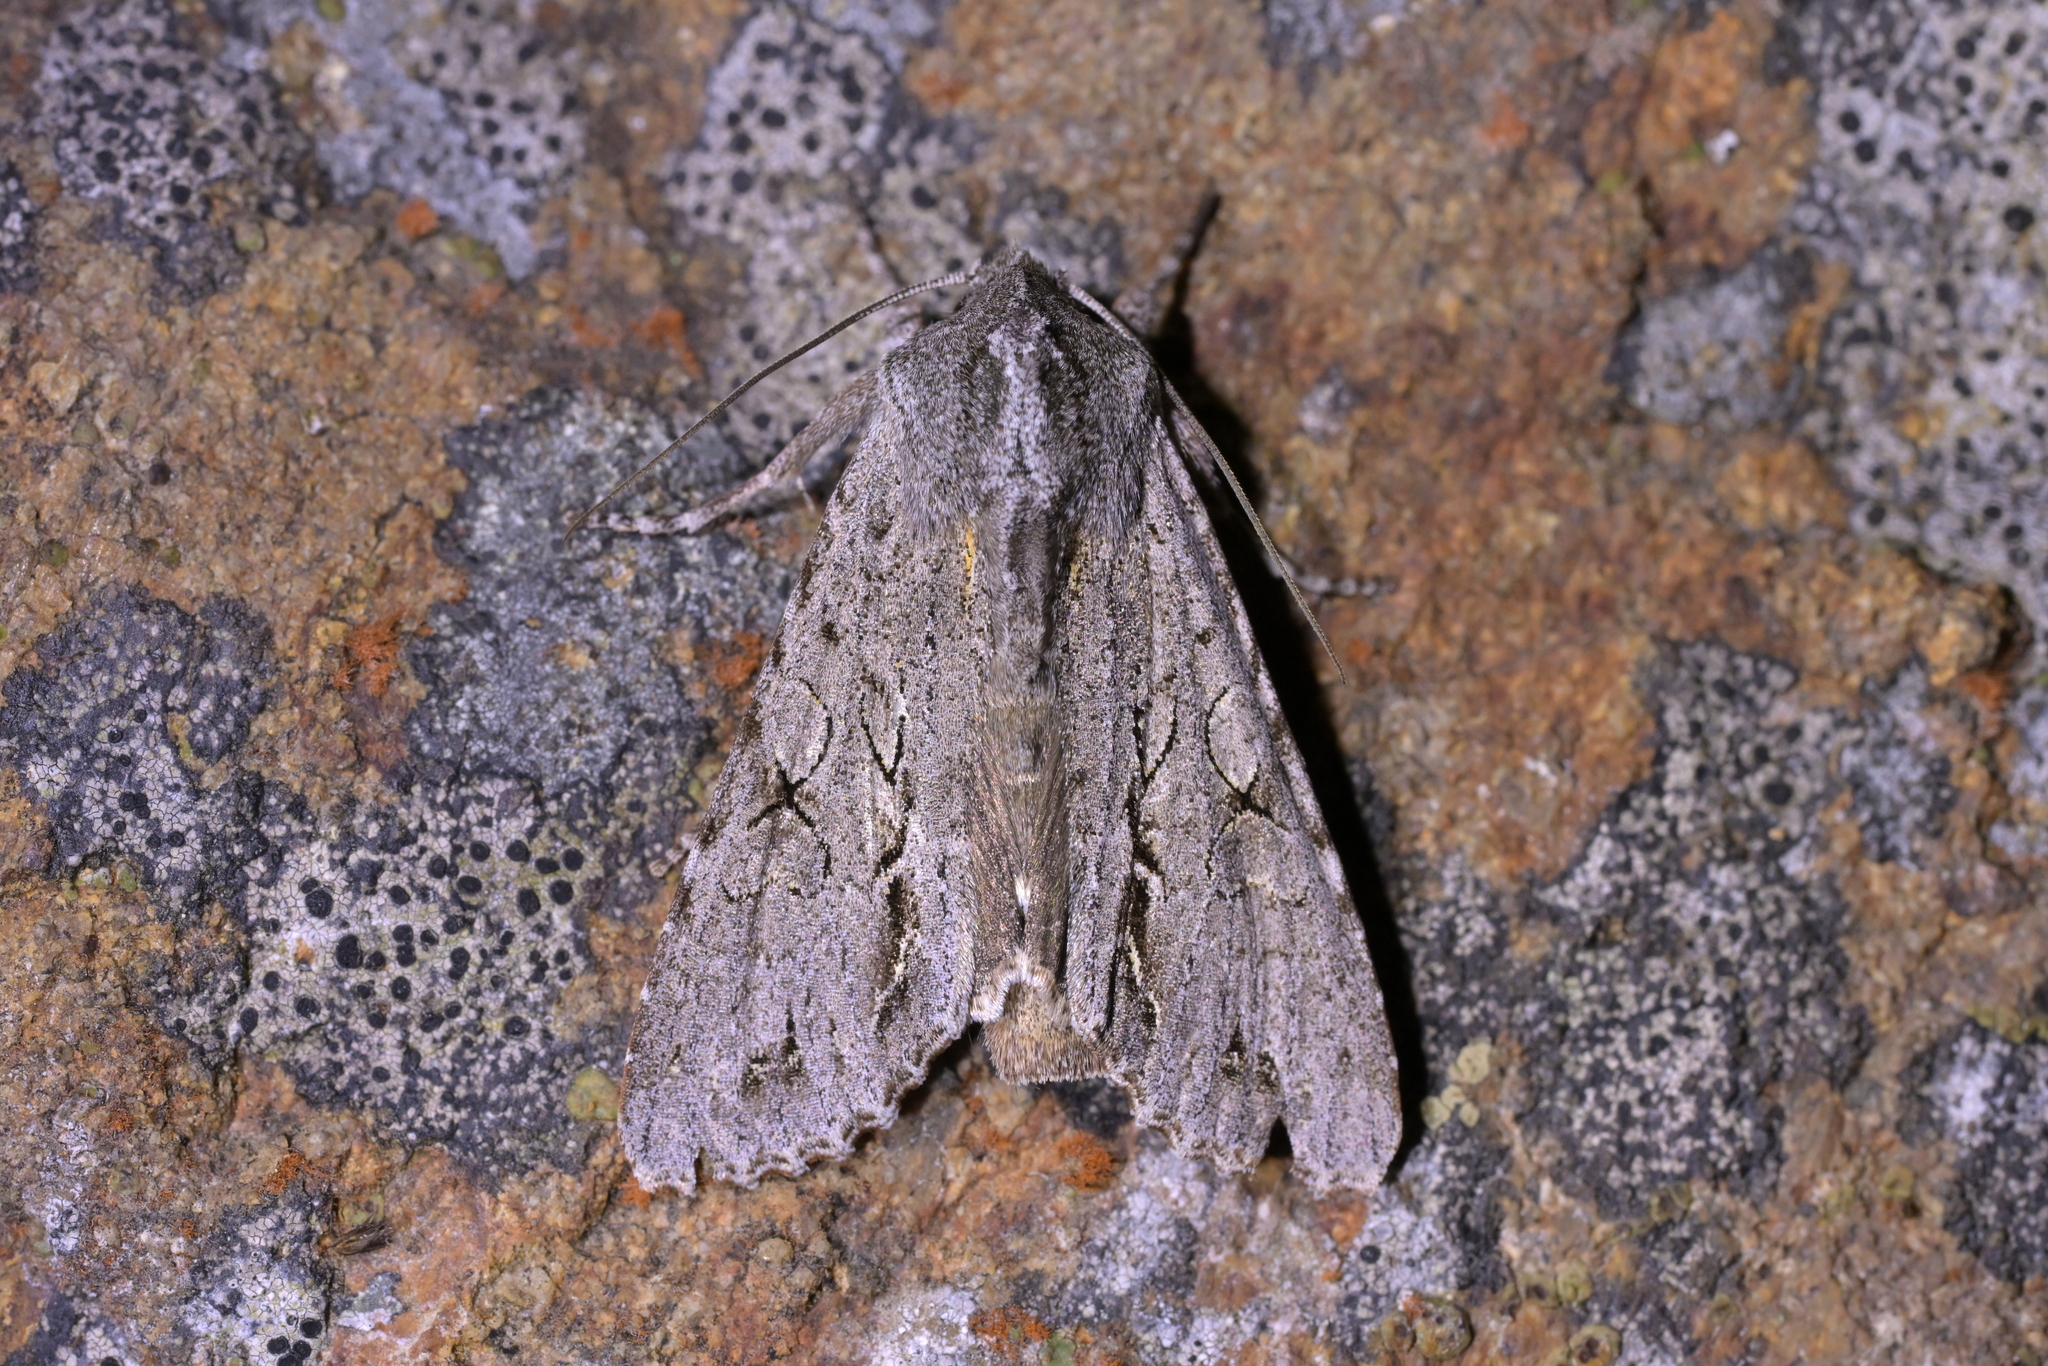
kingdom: Animalia
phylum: Arthropoda
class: Insecta
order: Lepidoptera
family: Noctuidae
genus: Ichneutica
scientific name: Ichneutica
